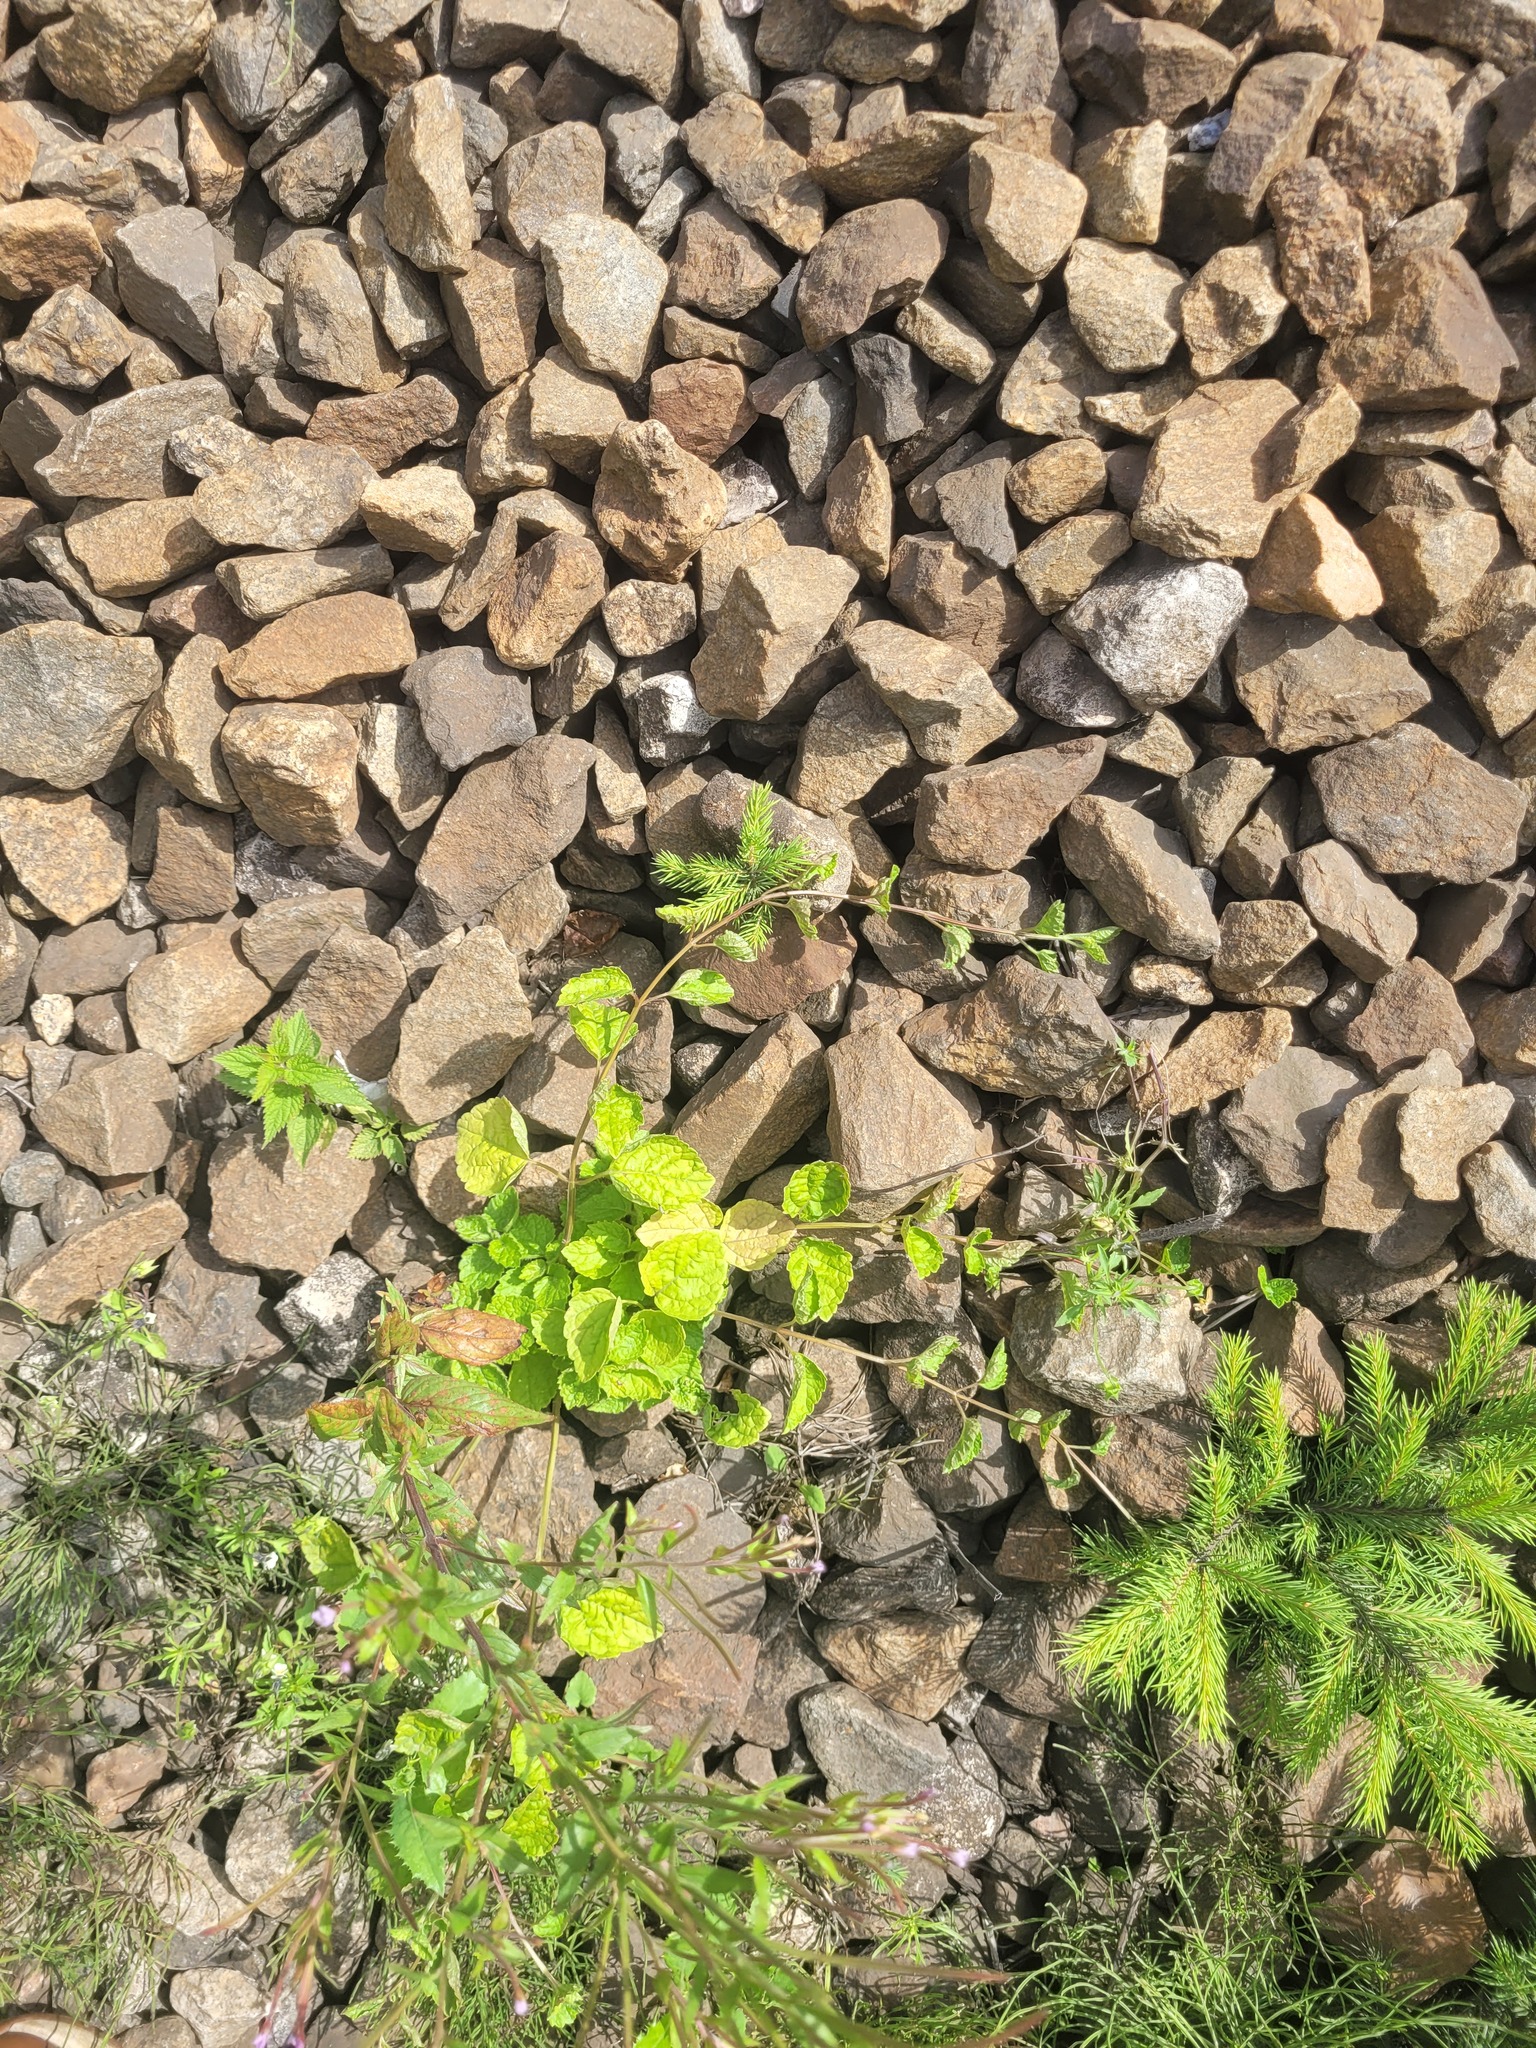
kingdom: Plantae
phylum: Tracheophyta
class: Magnoliopsida
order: Lamiales
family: Lamiaceae
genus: Lamium
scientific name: Lamium galeobdolon
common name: Yellow archangel
